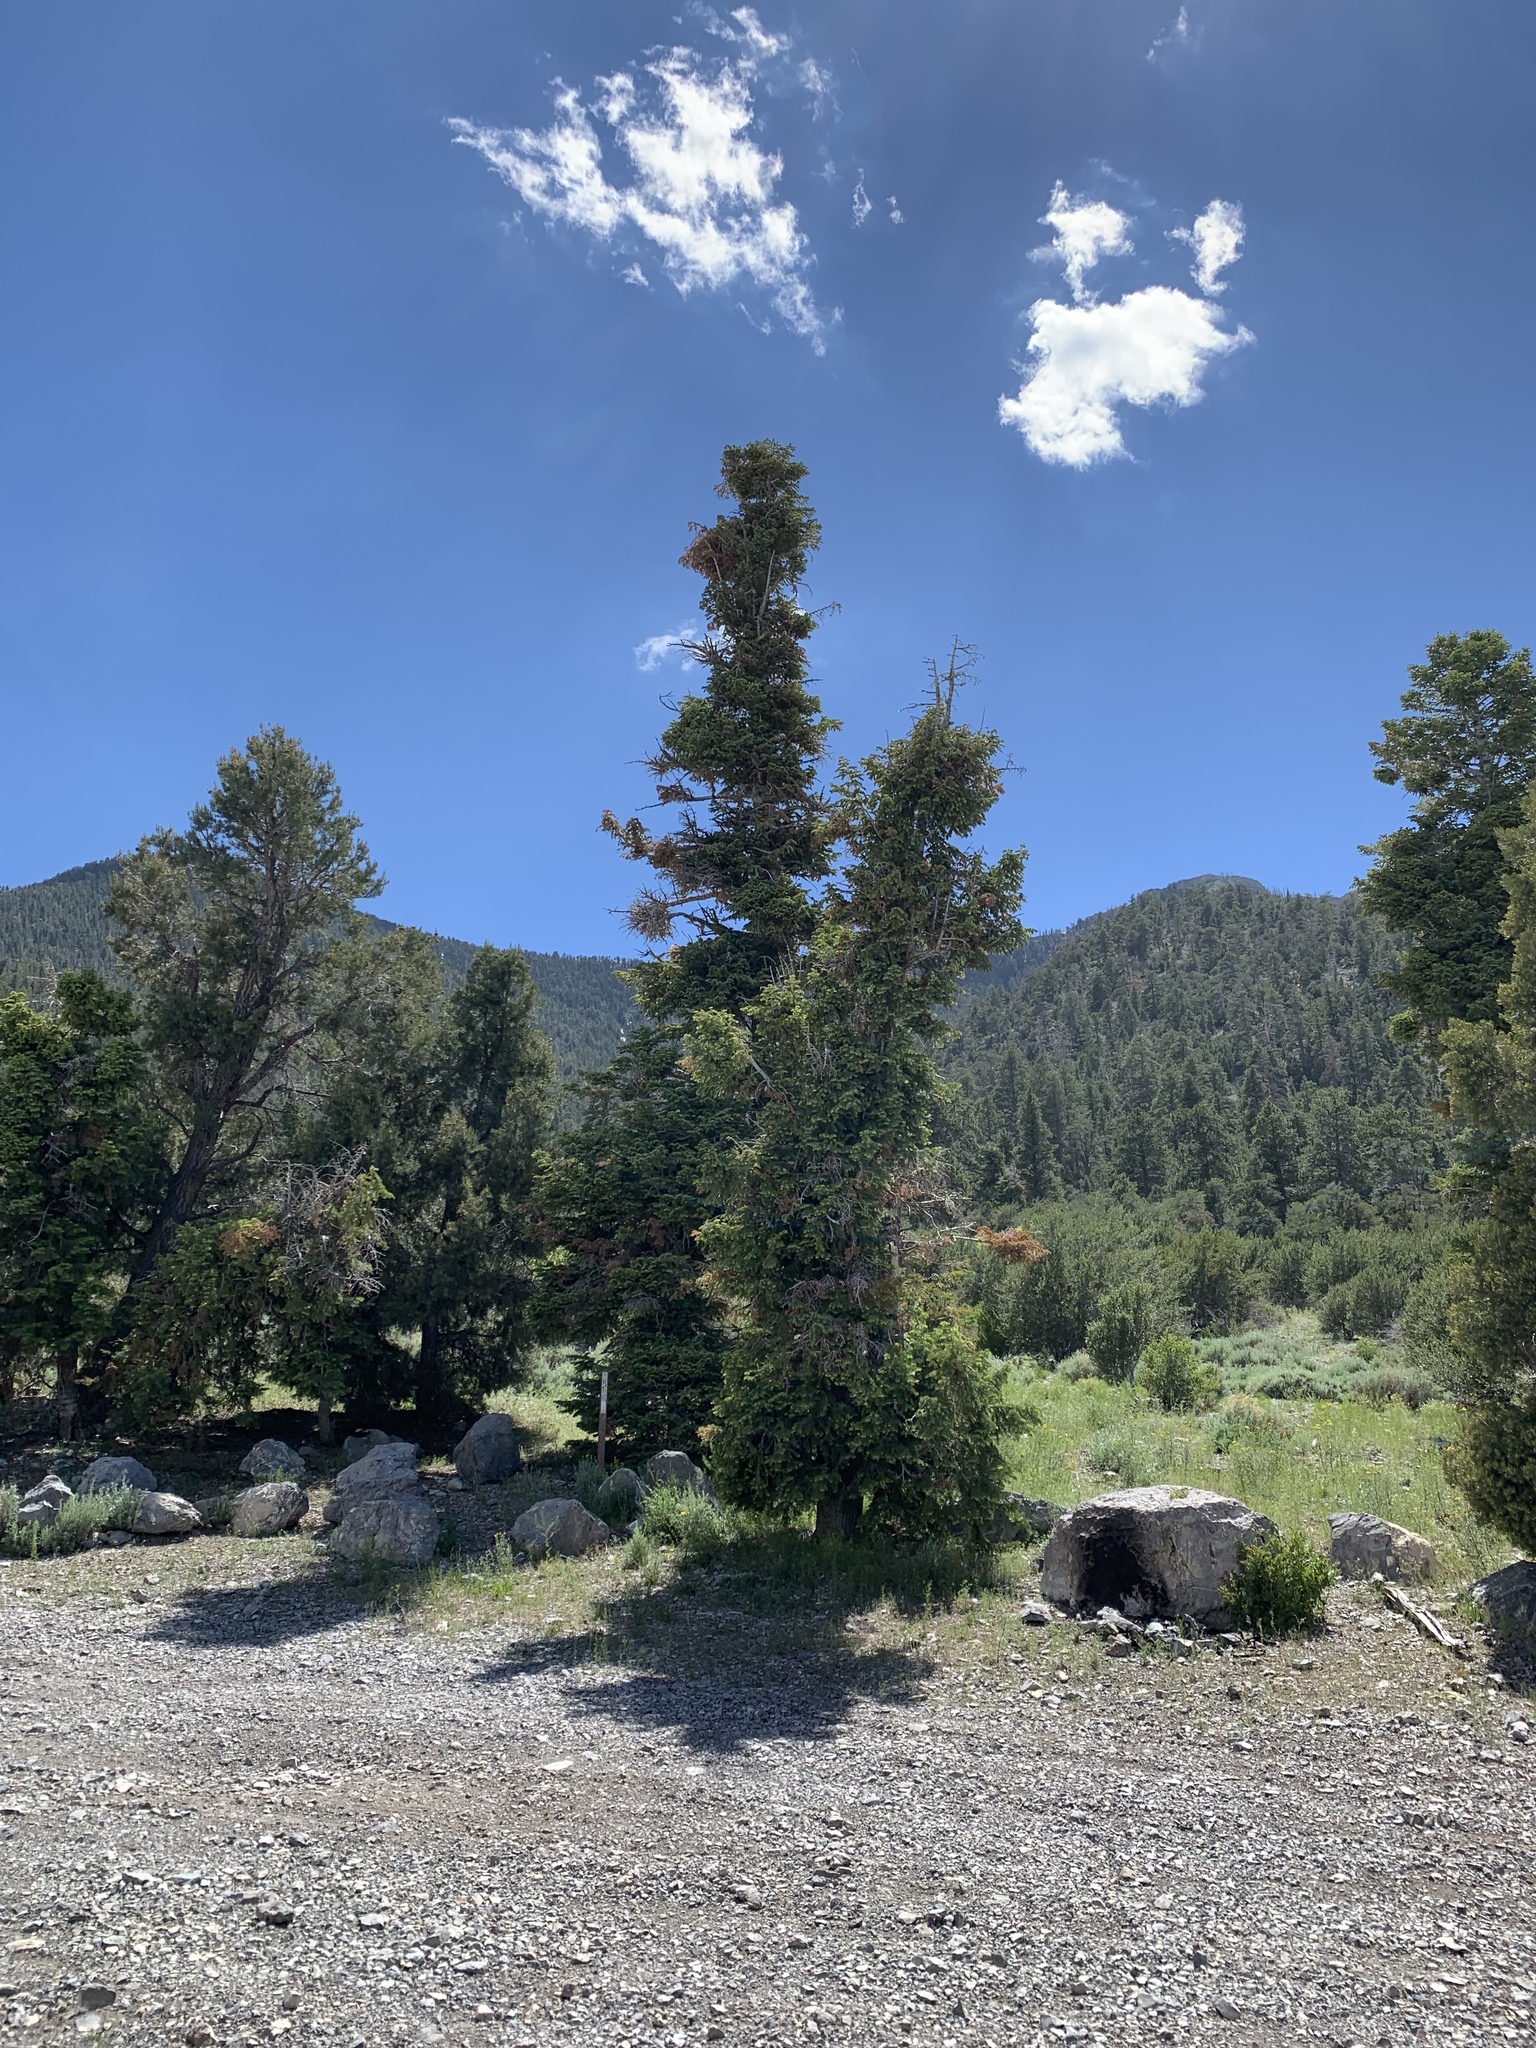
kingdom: Plantae
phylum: Tracheophyta
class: Pinopsida
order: Pinales
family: Pinaceae
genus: Abies
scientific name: Abies concolor
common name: Colorado fir
